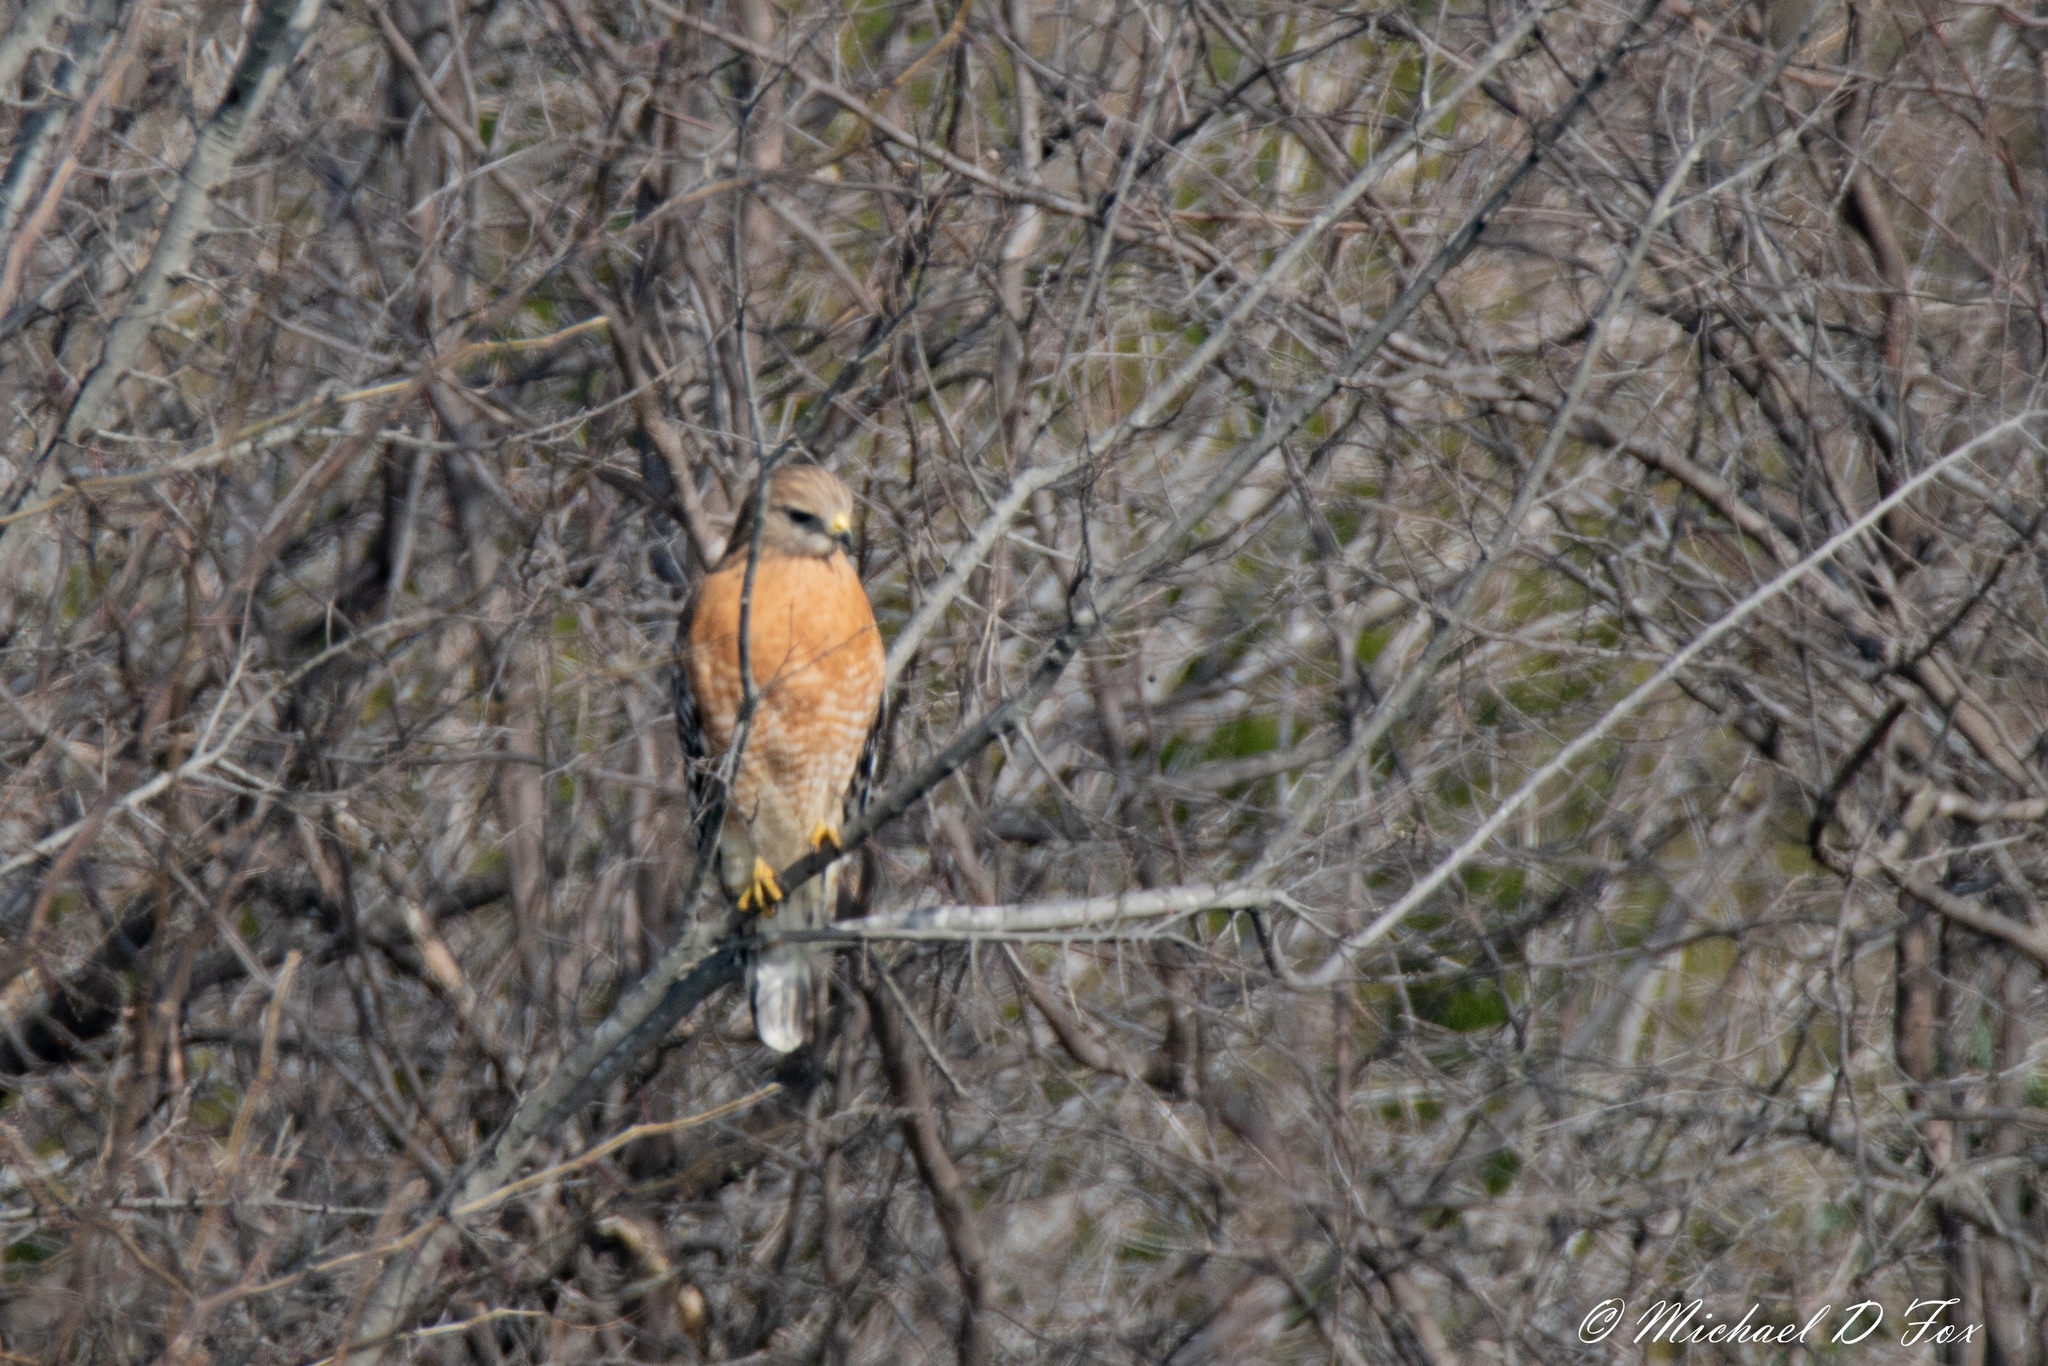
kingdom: Animalia
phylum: Chordata
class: Aves
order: Accipitriformes
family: Accipitridae
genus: Buteo
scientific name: Buteo lineatus
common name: Red-shouldered hawk
